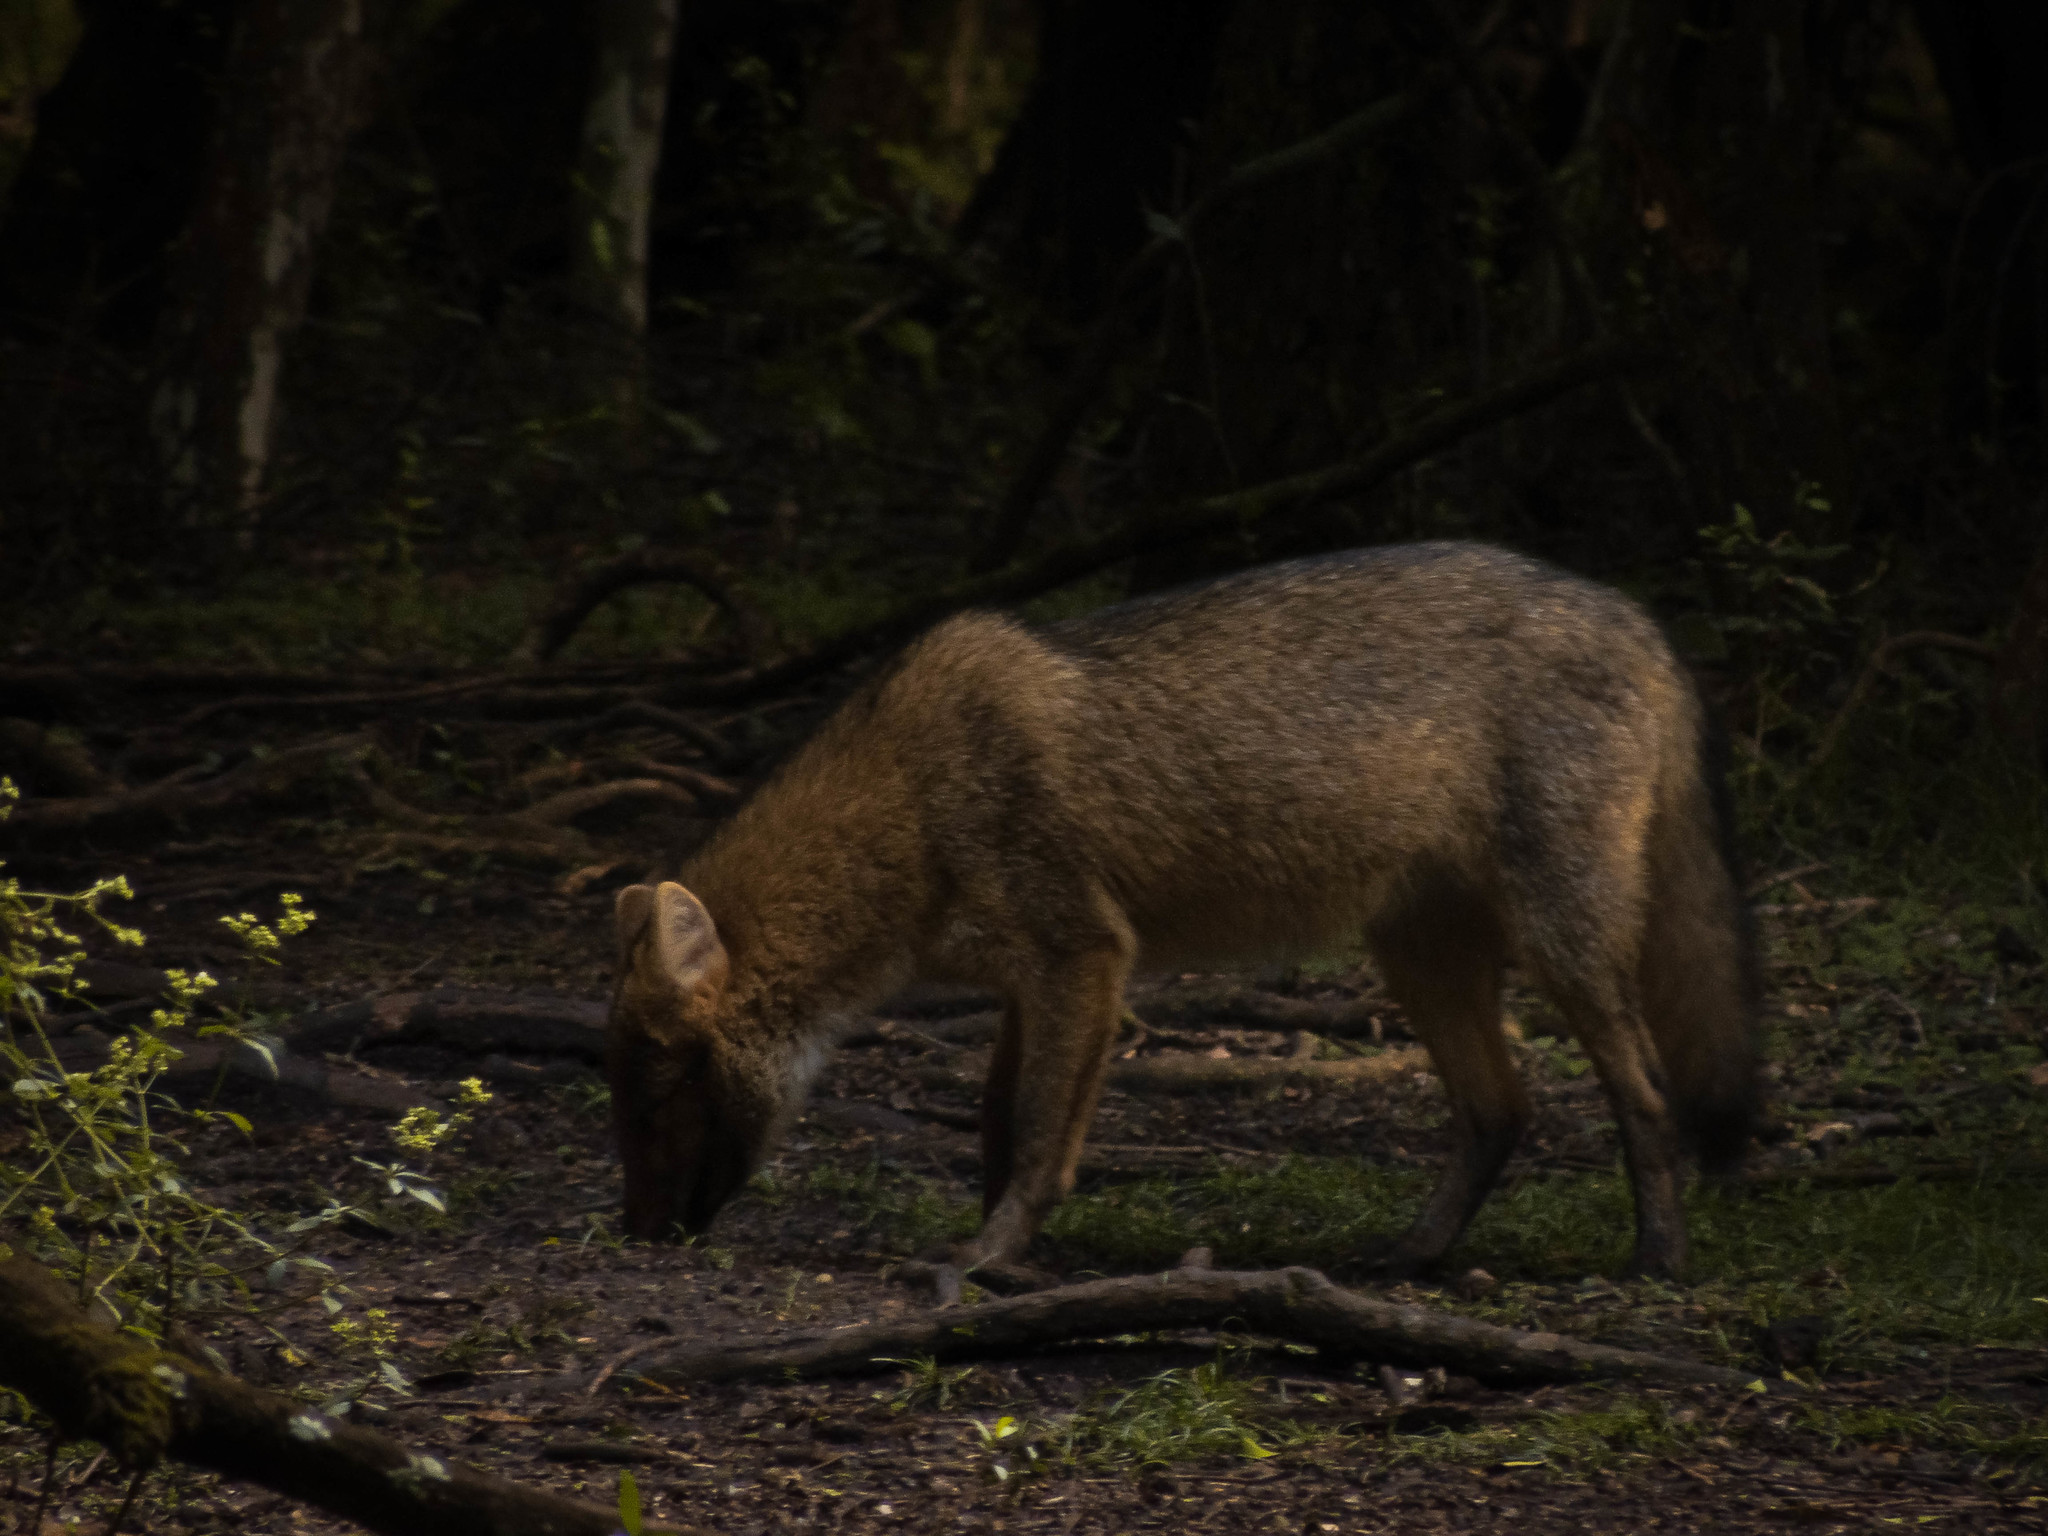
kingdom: Animalia
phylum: Chordata
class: Mammalia
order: Carnivora
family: Canidae
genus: Cerdocyon
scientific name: Cerdocyon thous
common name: Crab-eating fox
